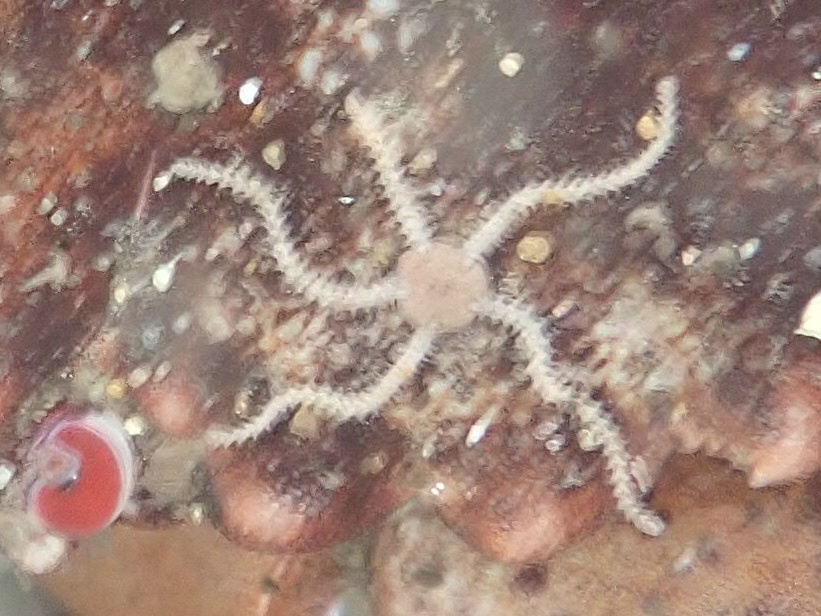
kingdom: Animalia
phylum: Echinodermata
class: Ophiuroidea
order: Amphilepidida
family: Amphiuridae
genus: Amphipholis
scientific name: Amphipholis squamata
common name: Brooding snake star
